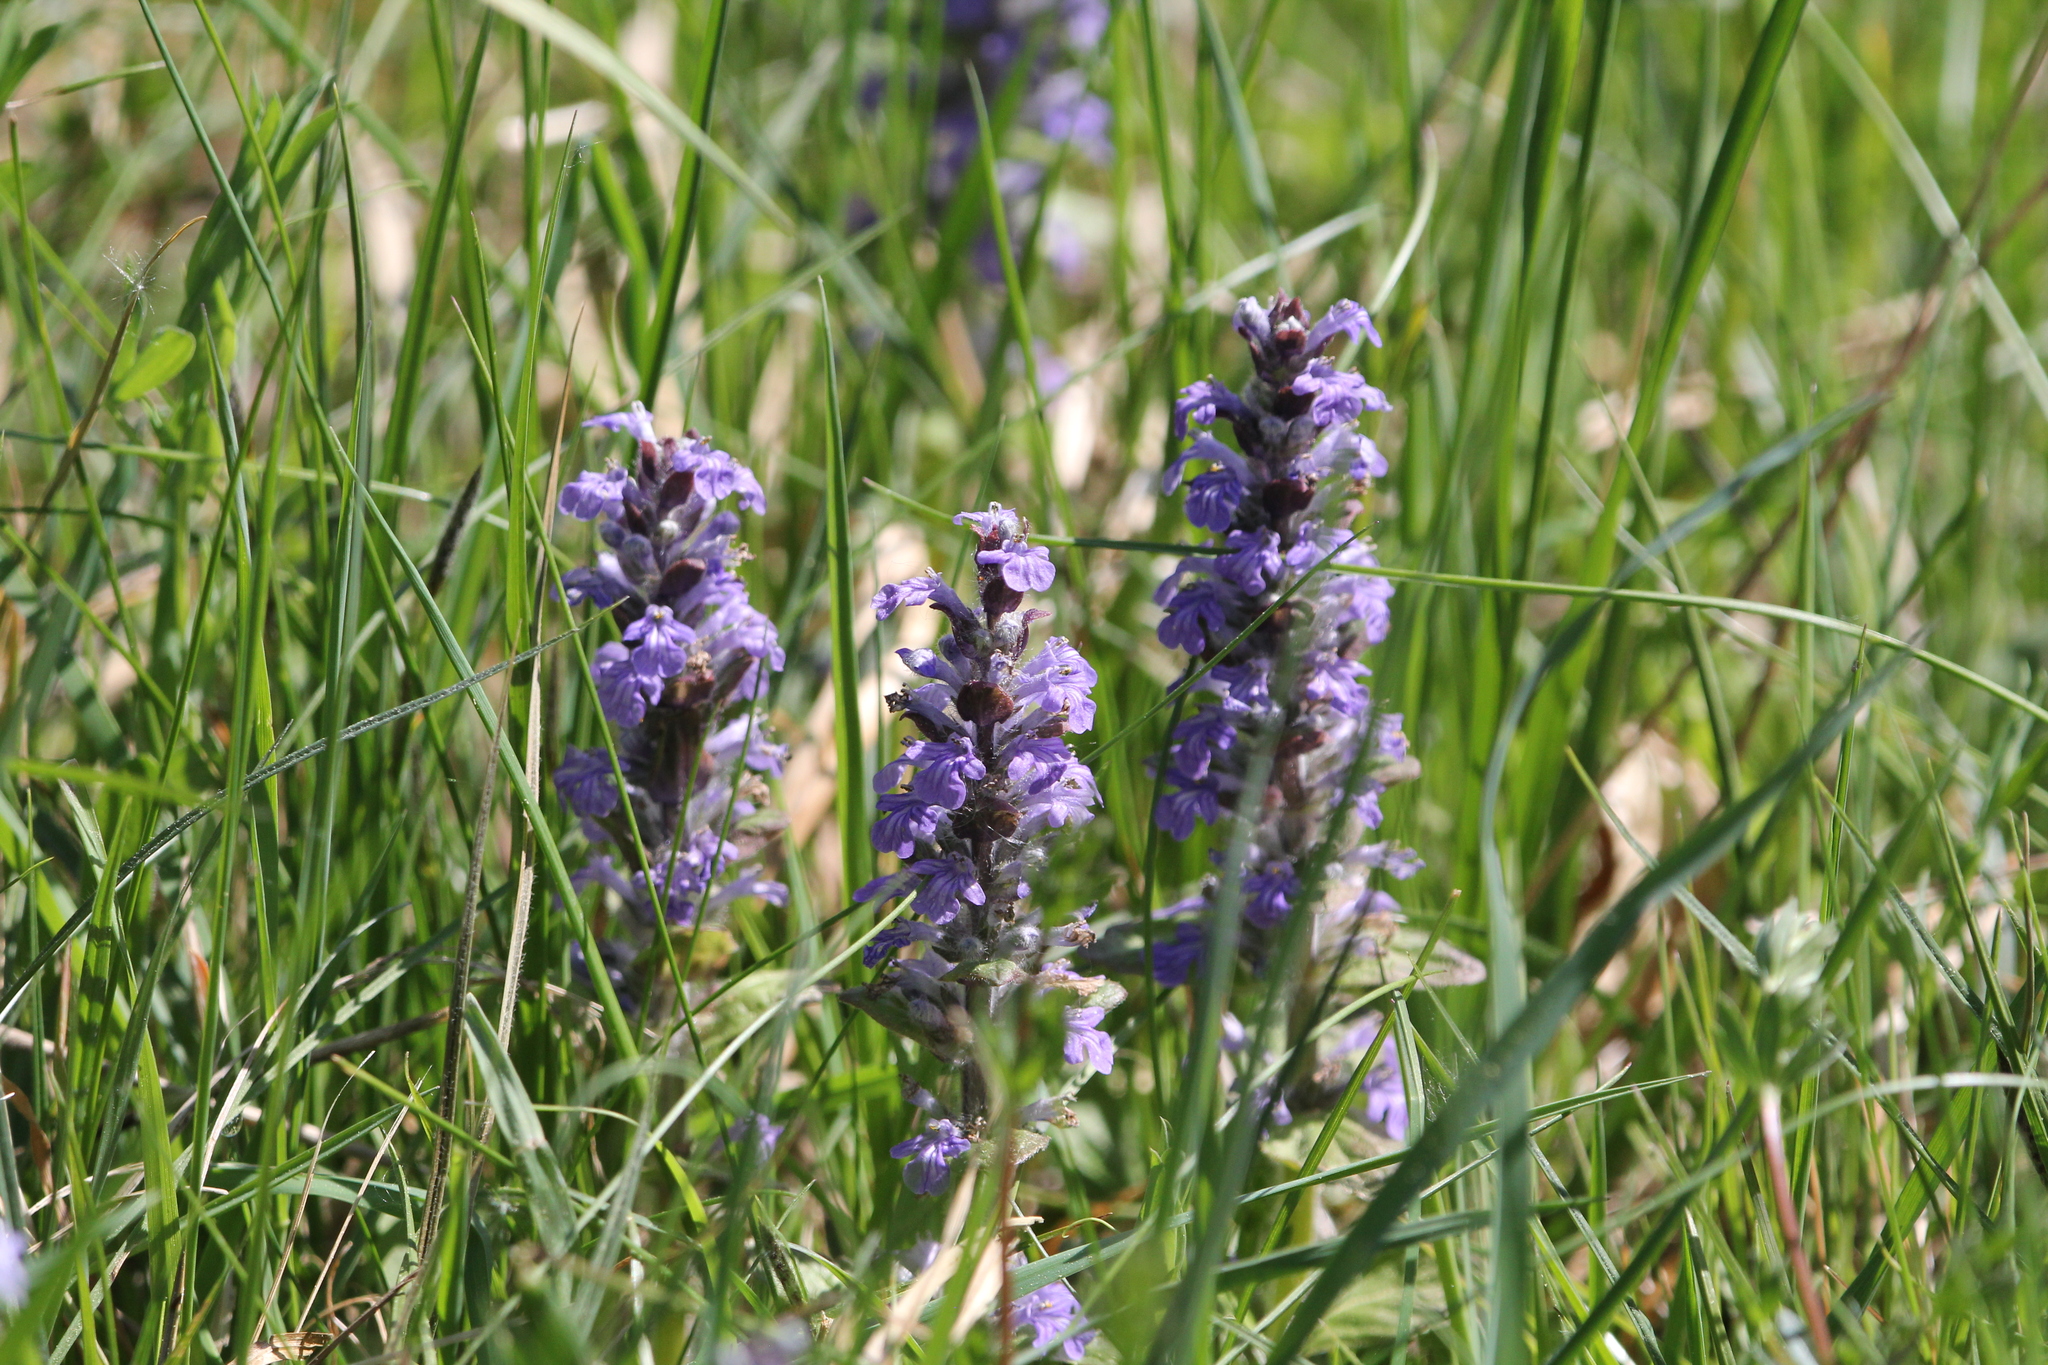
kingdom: Plantae
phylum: Tracheophyta
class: Magnoliopsida
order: Lamiales
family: Lamiaceae
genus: Ajuga
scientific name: Ajuga reptans
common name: Bugle
